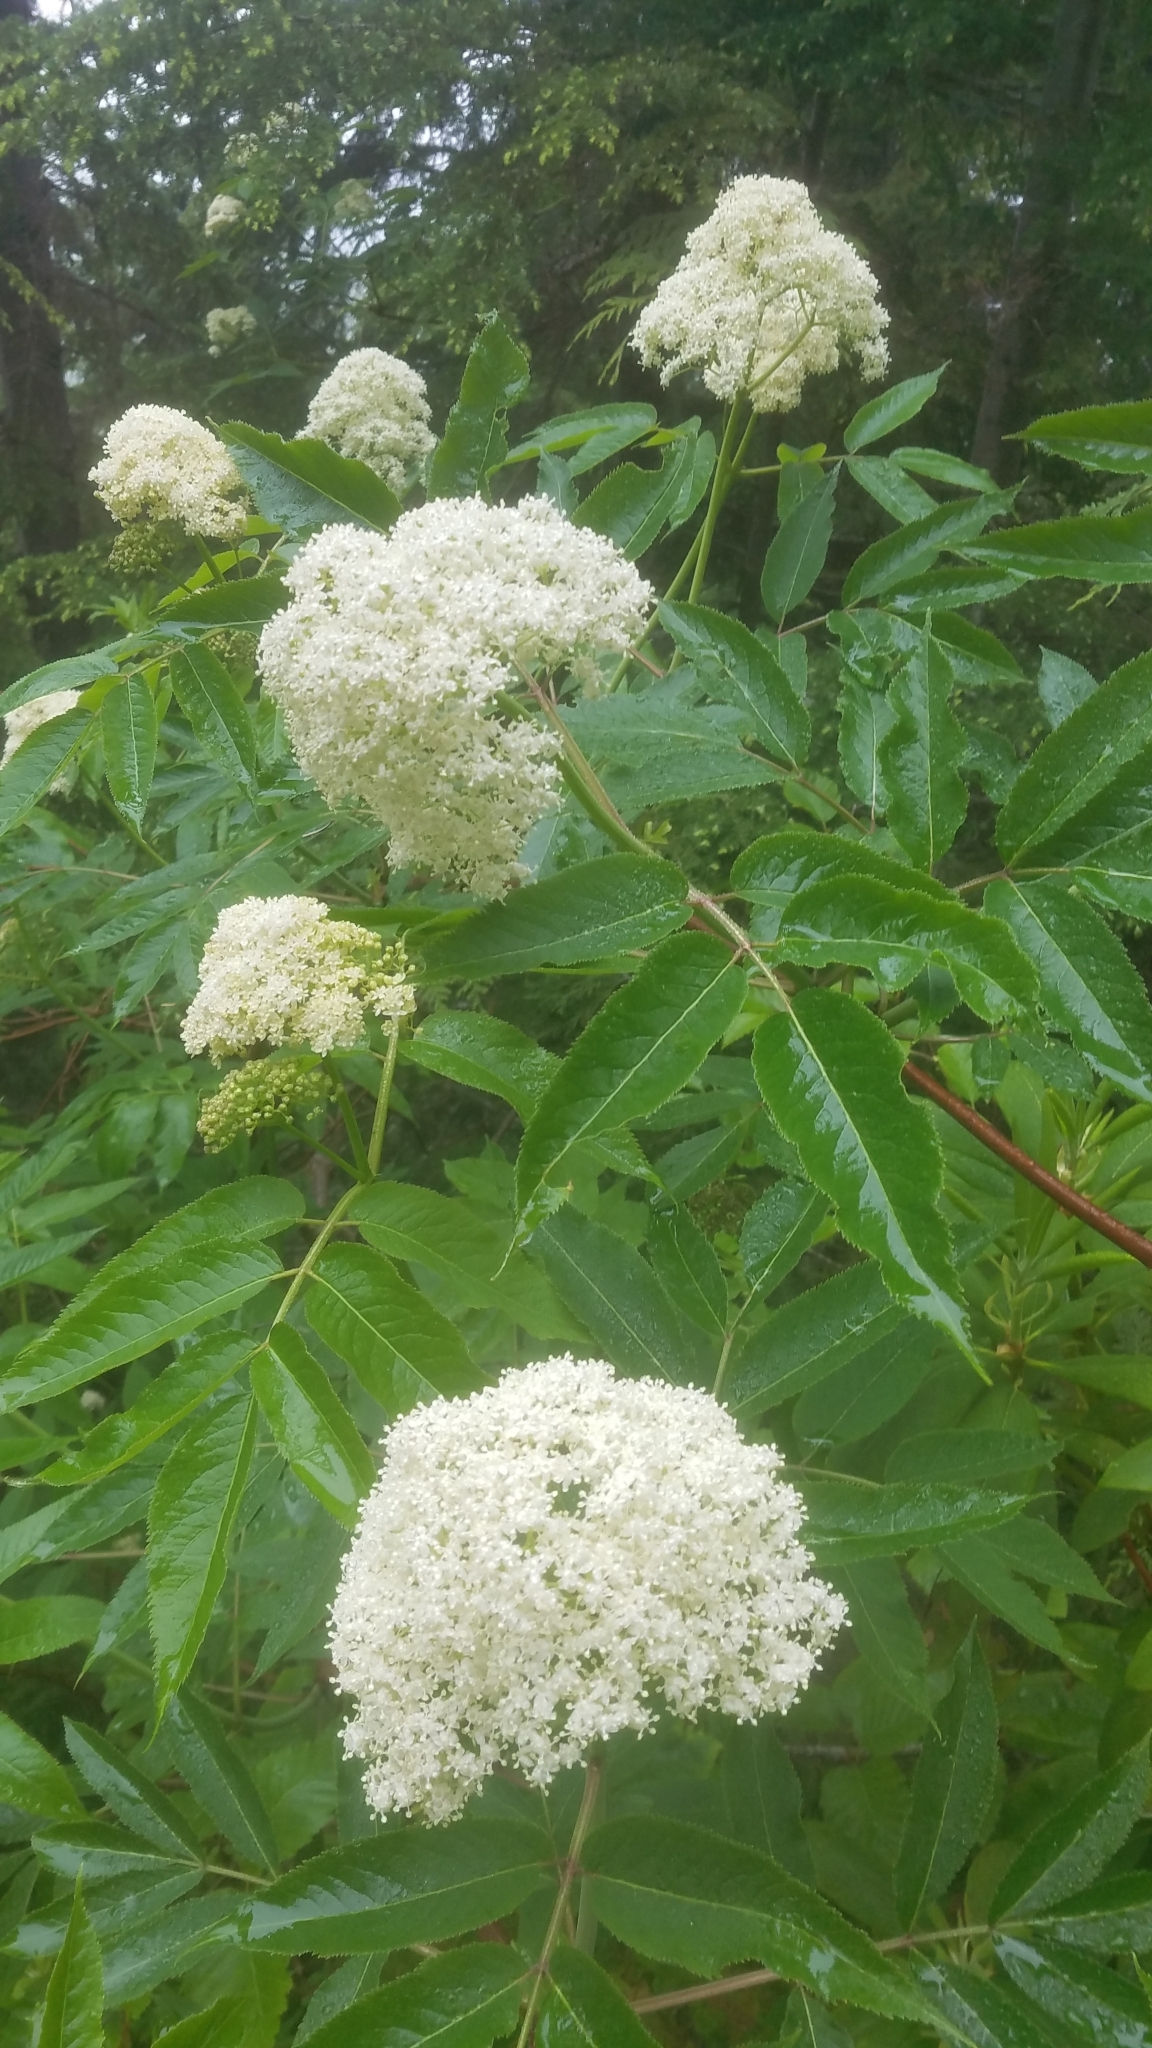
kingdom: Plantae
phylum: Tracheophyta
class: Magnoliopsida
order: Dipsacales
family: Viburnaceae
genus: Sambucus
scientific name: Sambucus racemosa
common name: Red-berried elder
